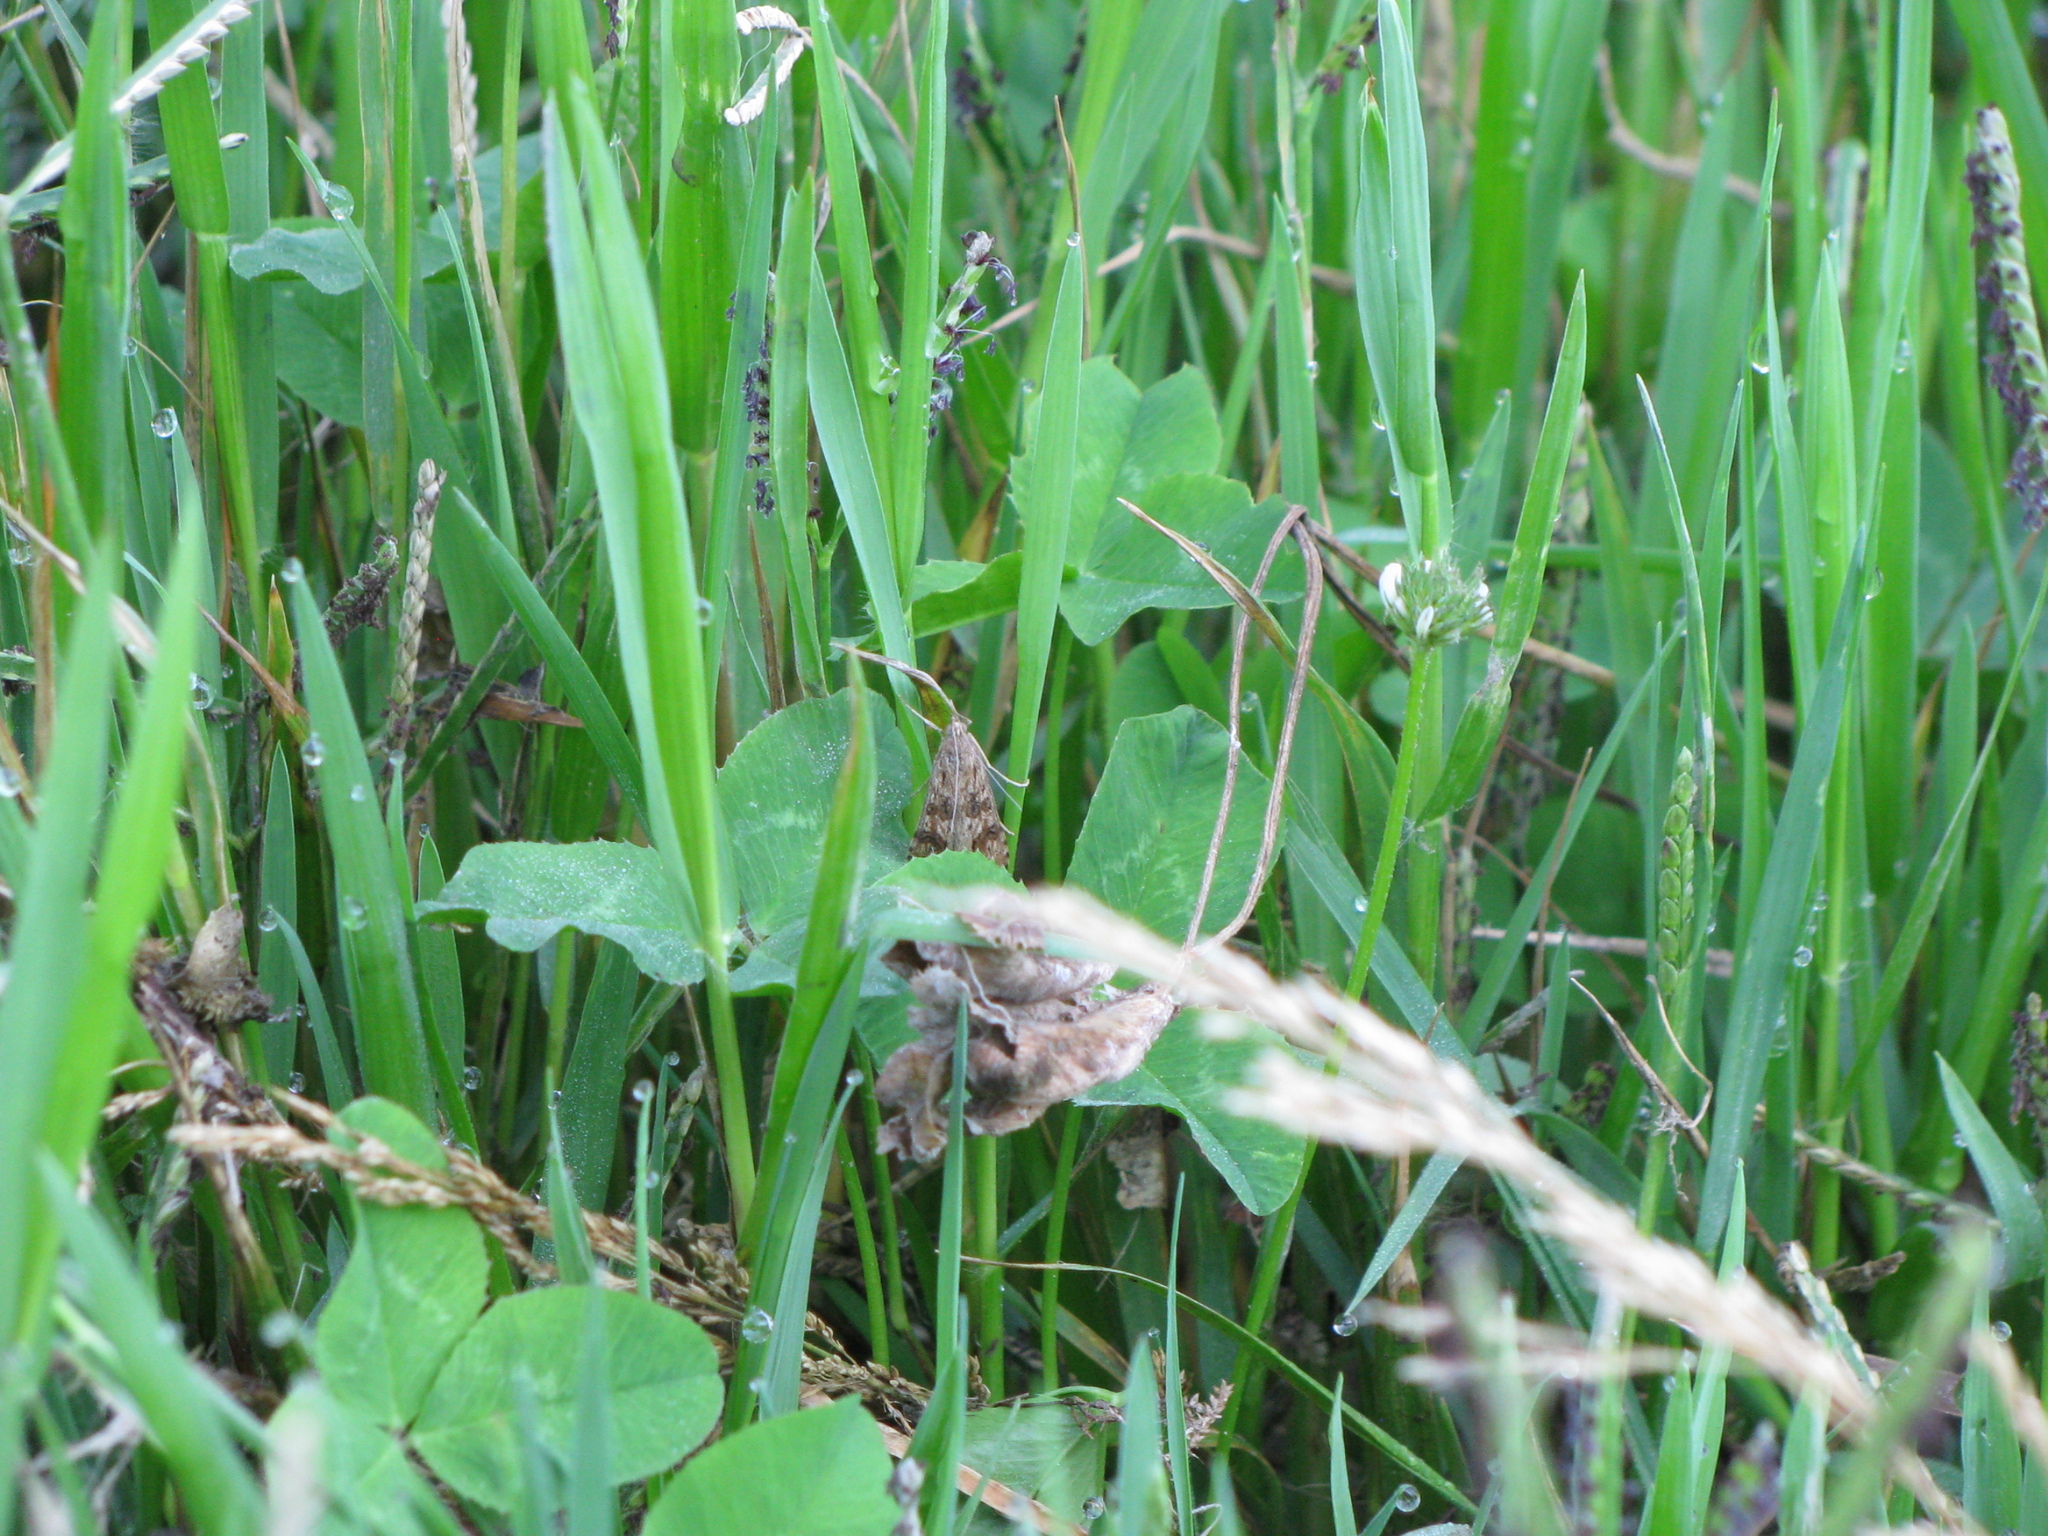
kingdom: Animalia
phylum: Arthropoda
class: Insecta
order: Lepidoptera
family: Crambidae
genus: Nomophila
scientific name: Nomophila noctuella
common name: Rush veneer
